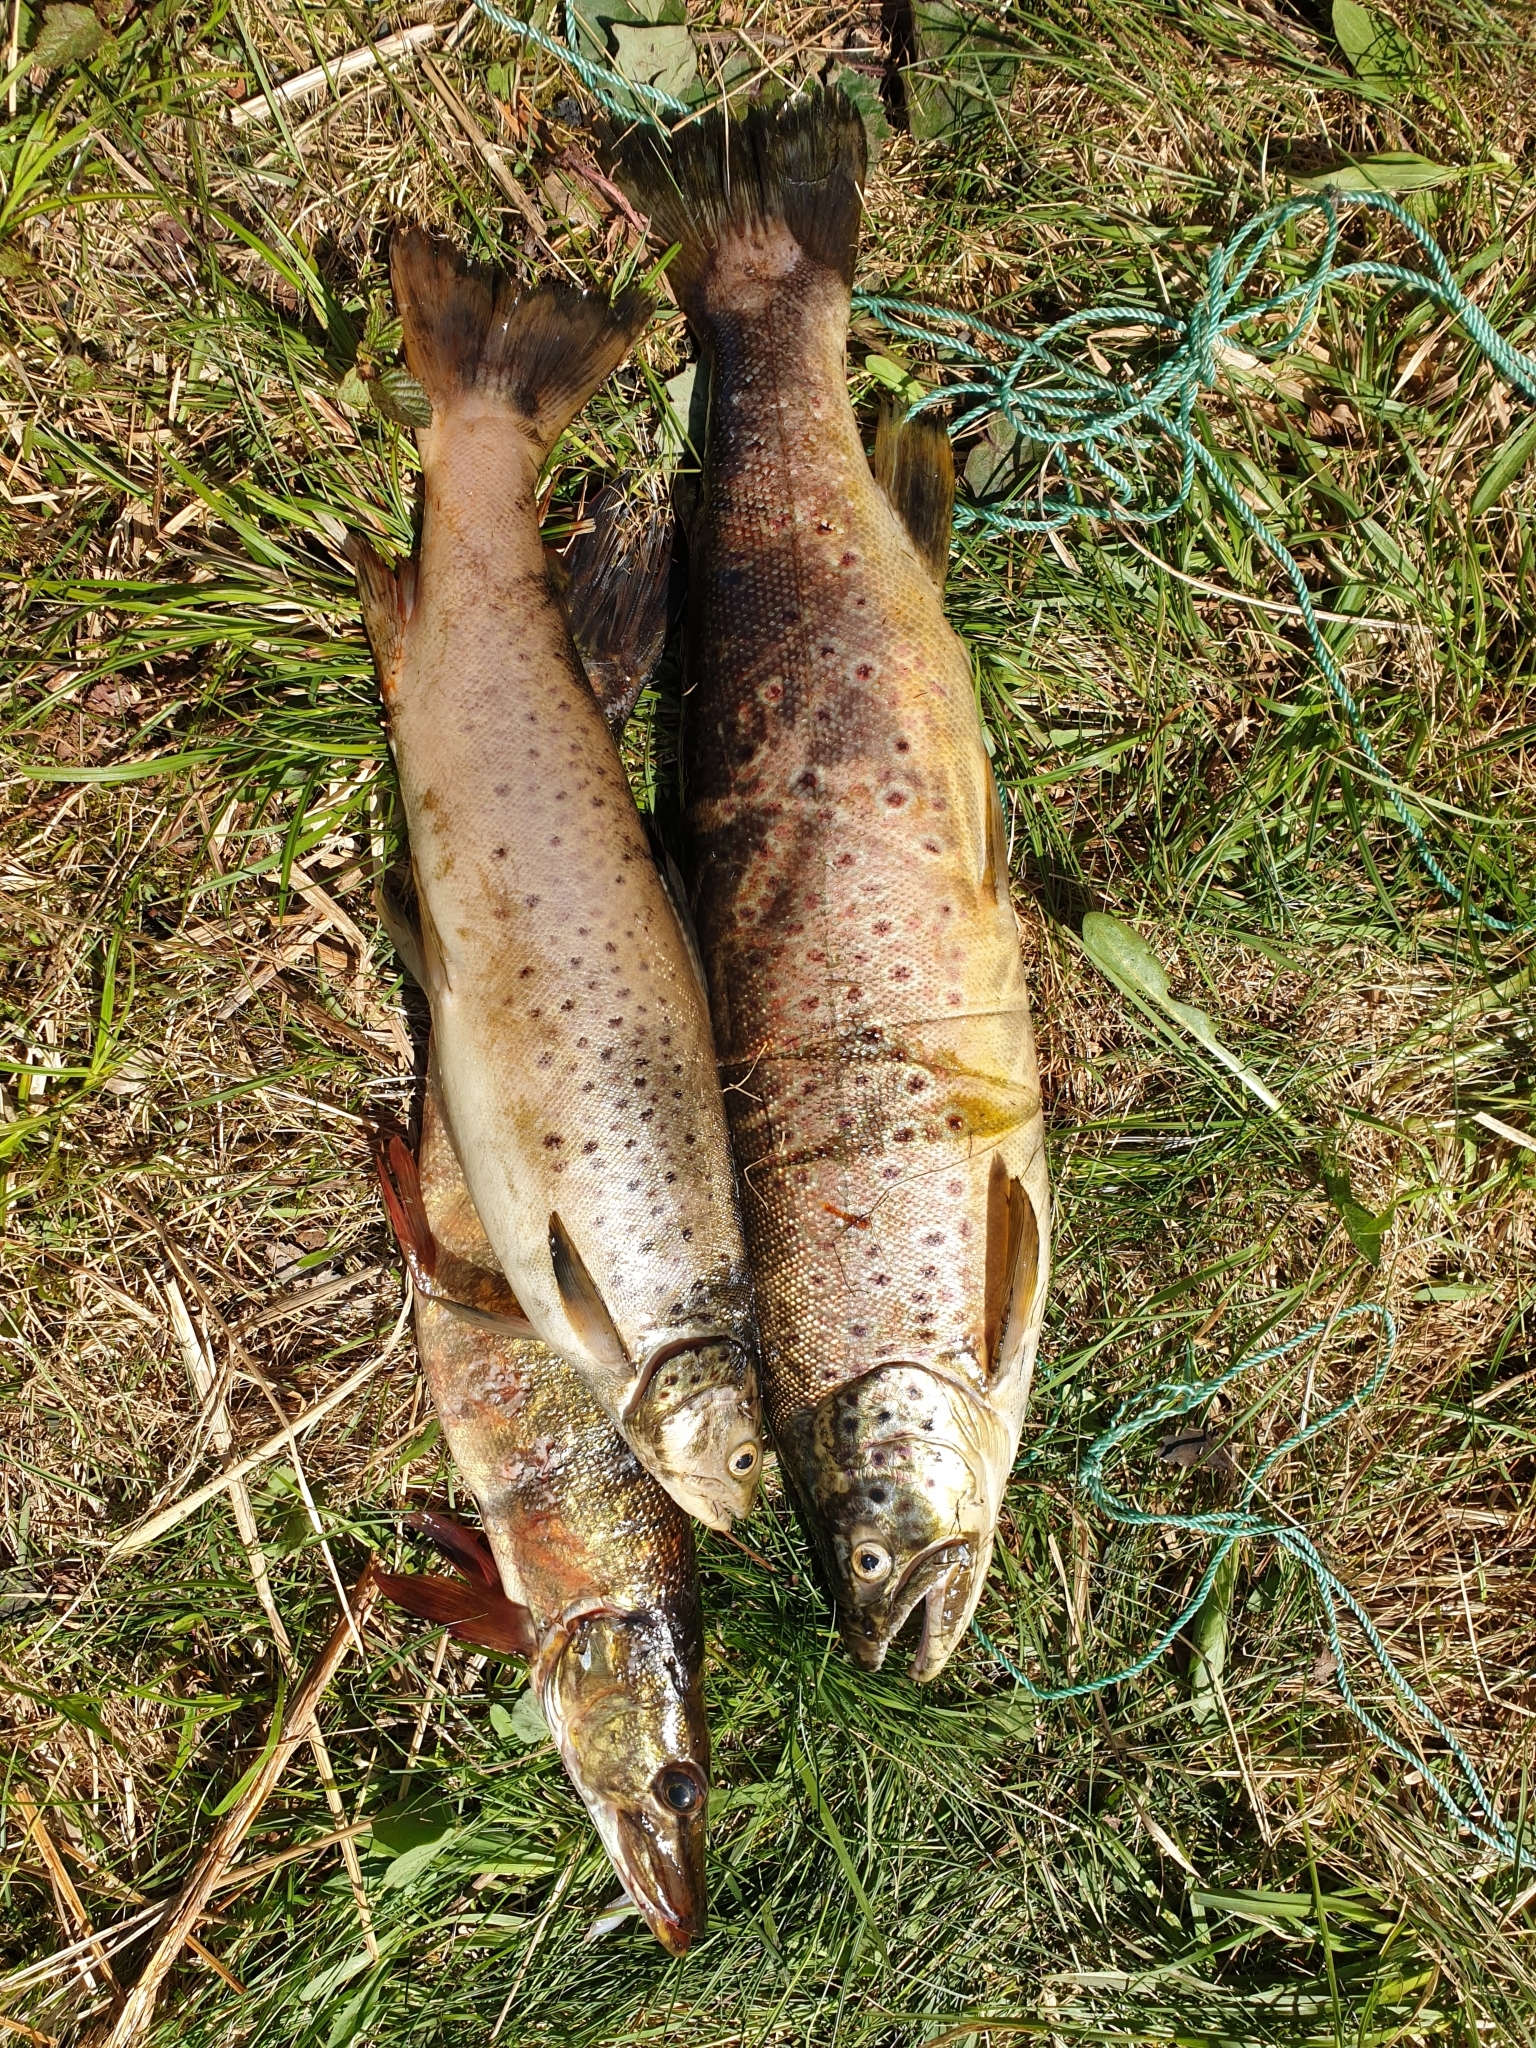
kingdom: Animalia
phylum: Chordata
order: Salmoniformes
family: Salmonidae
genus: Salmo
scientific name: Salmo trutta
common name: Brown trout
